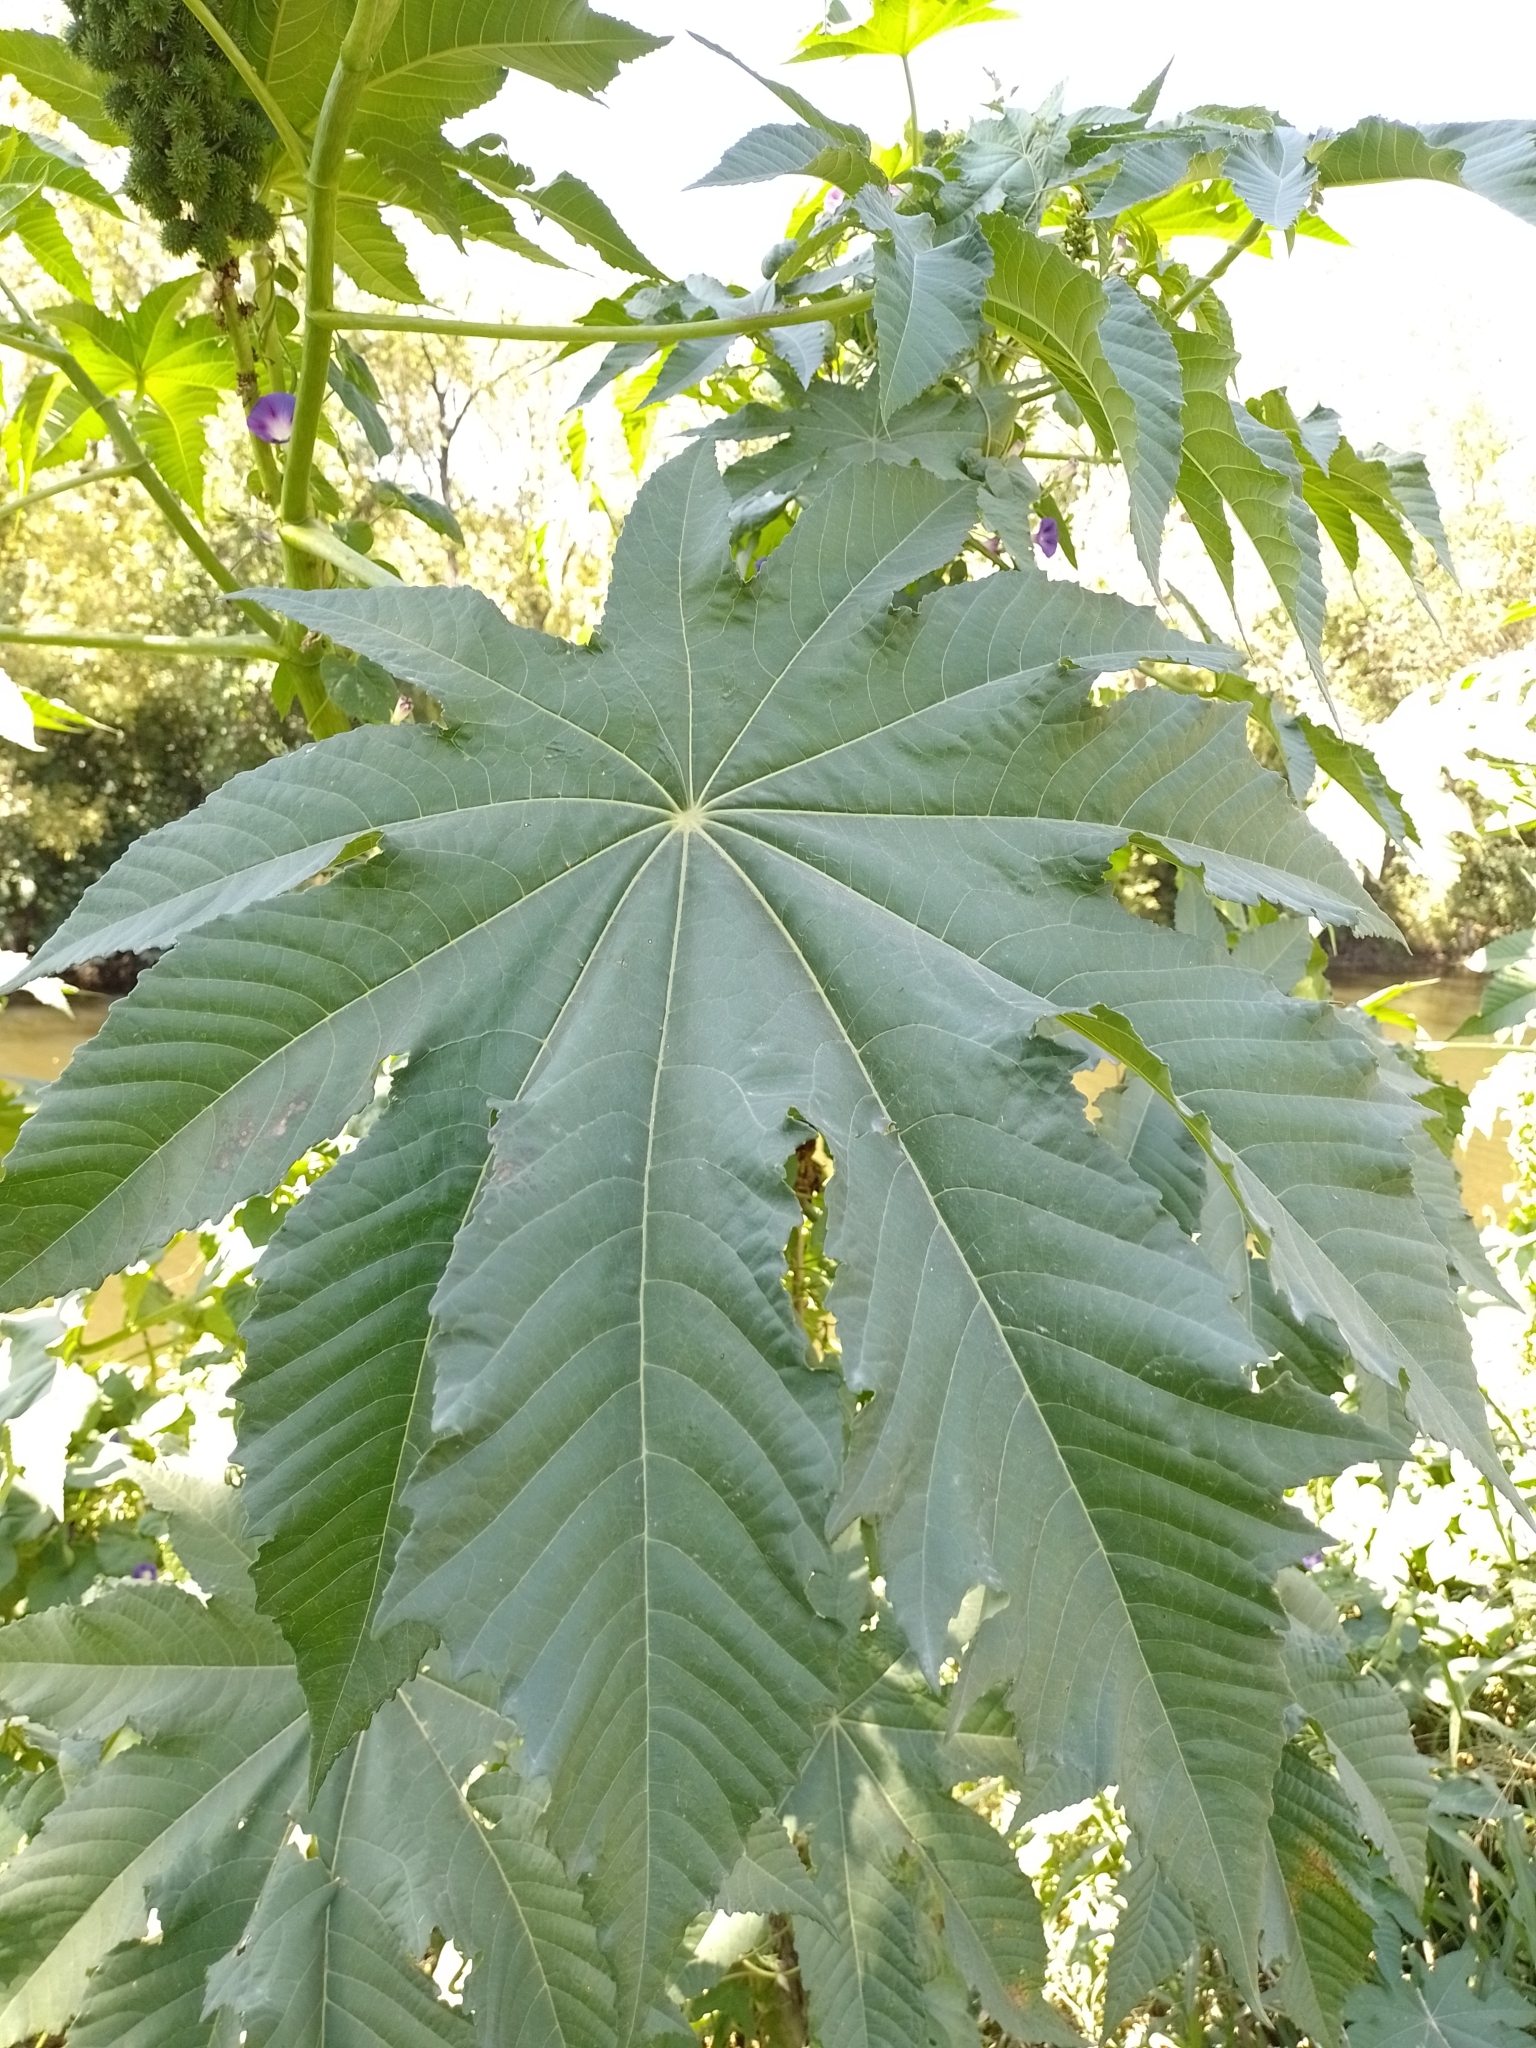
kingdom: Plantae
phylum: Tracheophyta
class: Magnoliopsida
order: Malpighiales
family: Euphorbiaceae
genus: Ricinus
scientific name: Ricinus communis
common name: Castor-oil-plant
